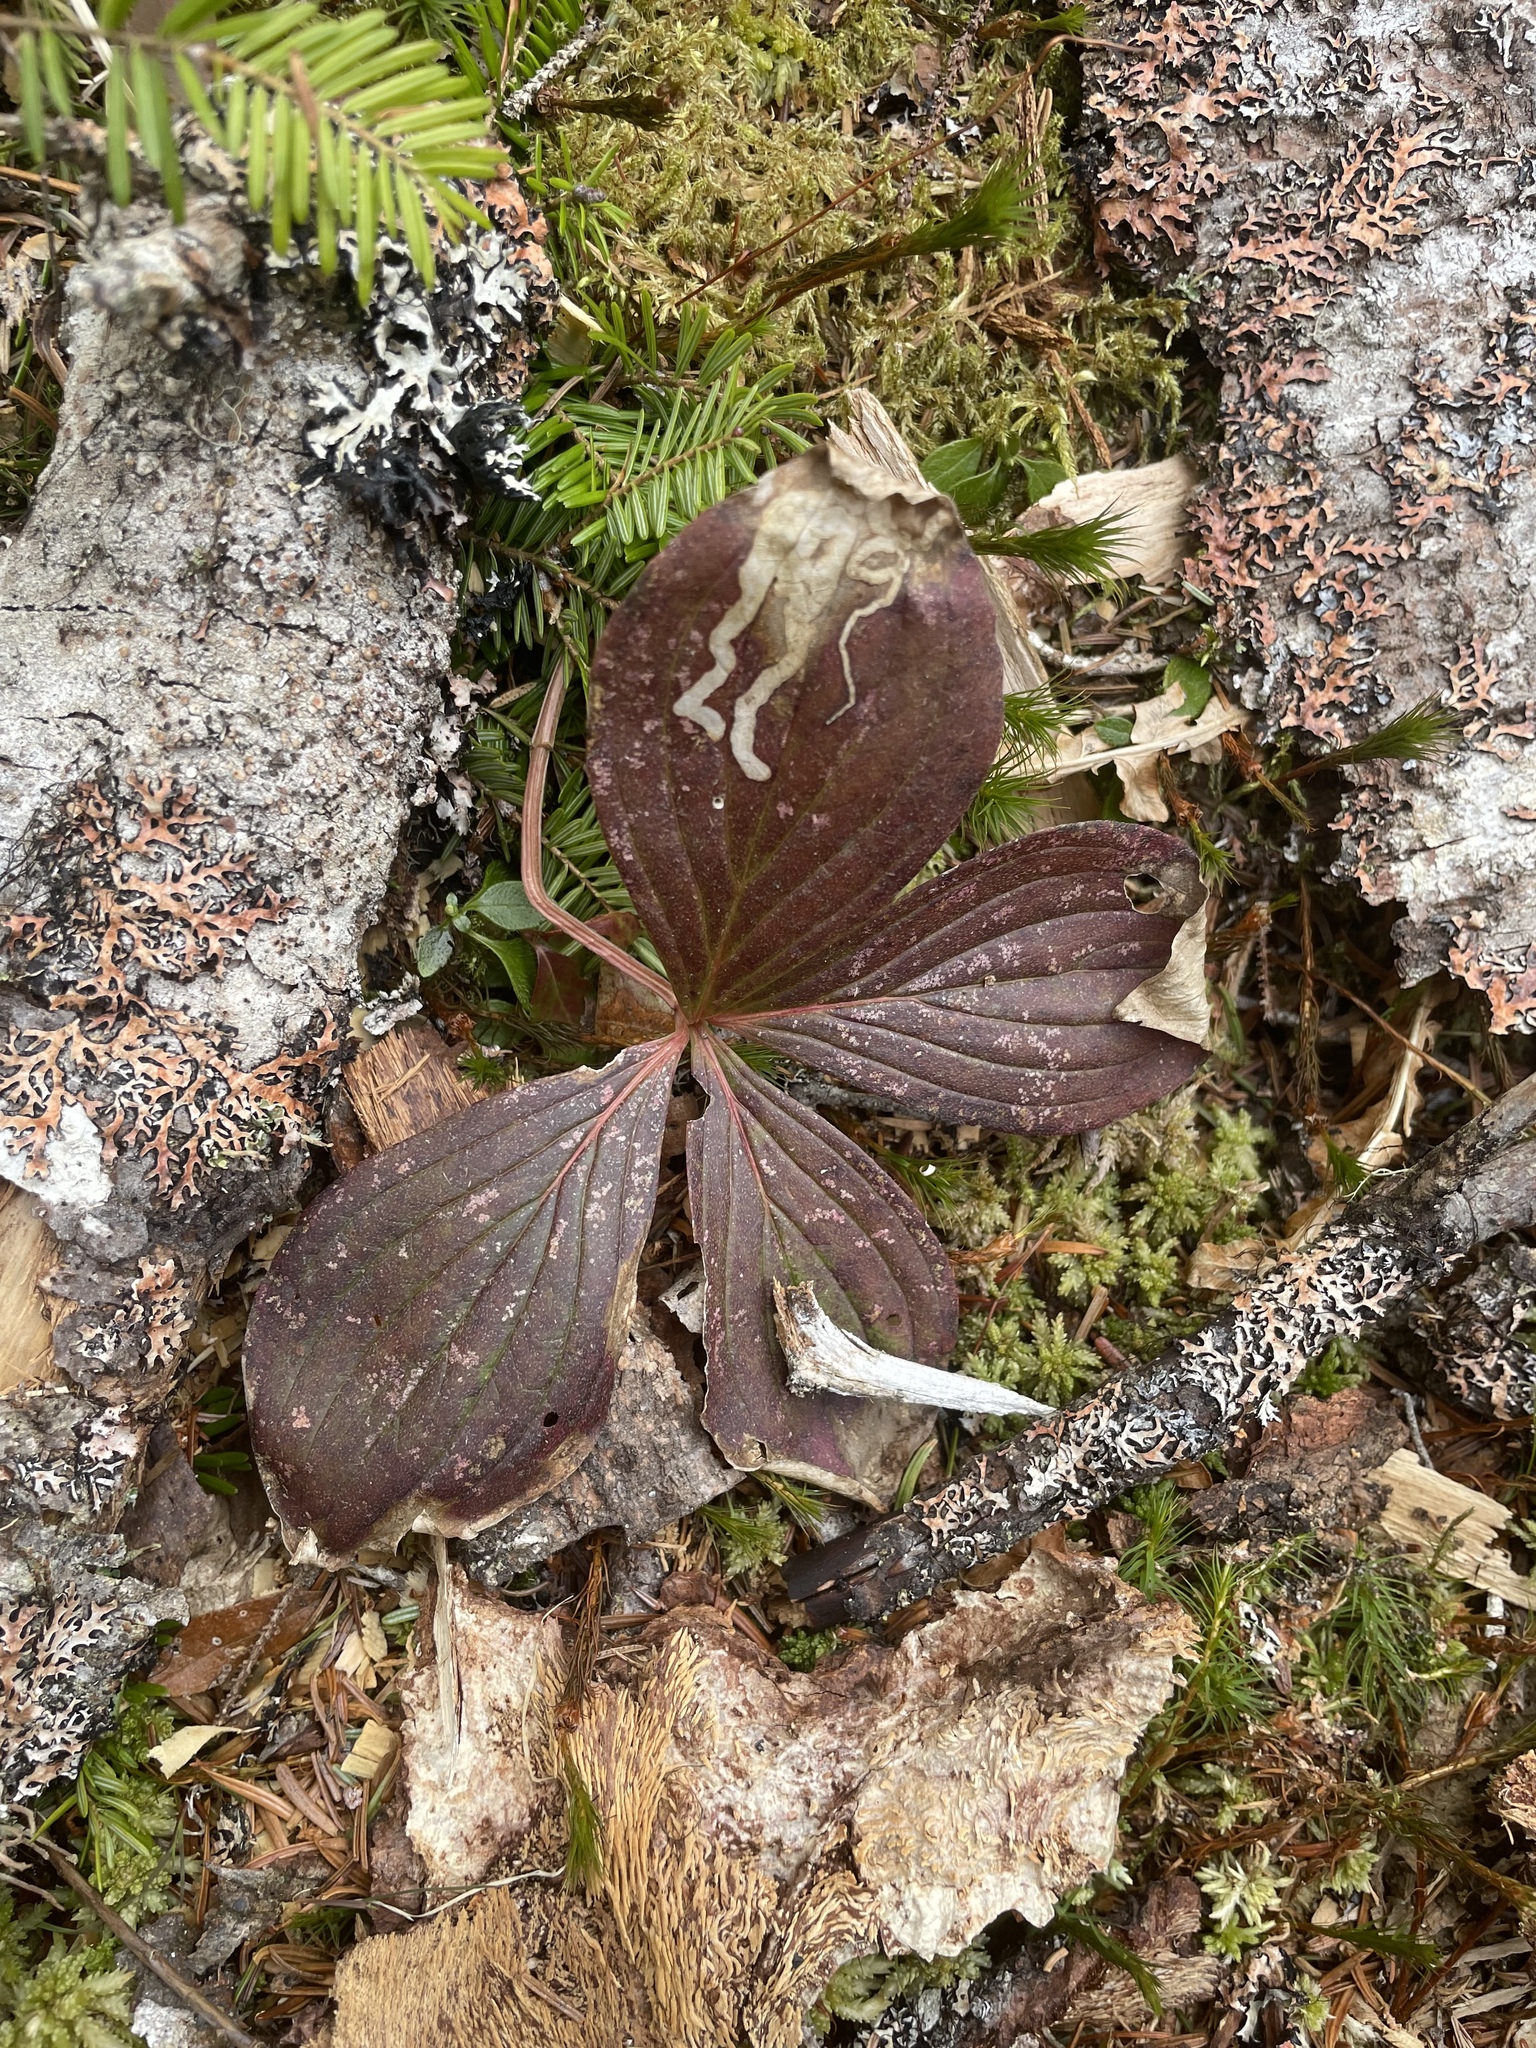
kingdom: Animalia
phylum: Arthropoda
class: Insecta
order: Diptera
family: Agromyzidae
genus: Phytomyza
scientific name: Phytomyza agromyzina
